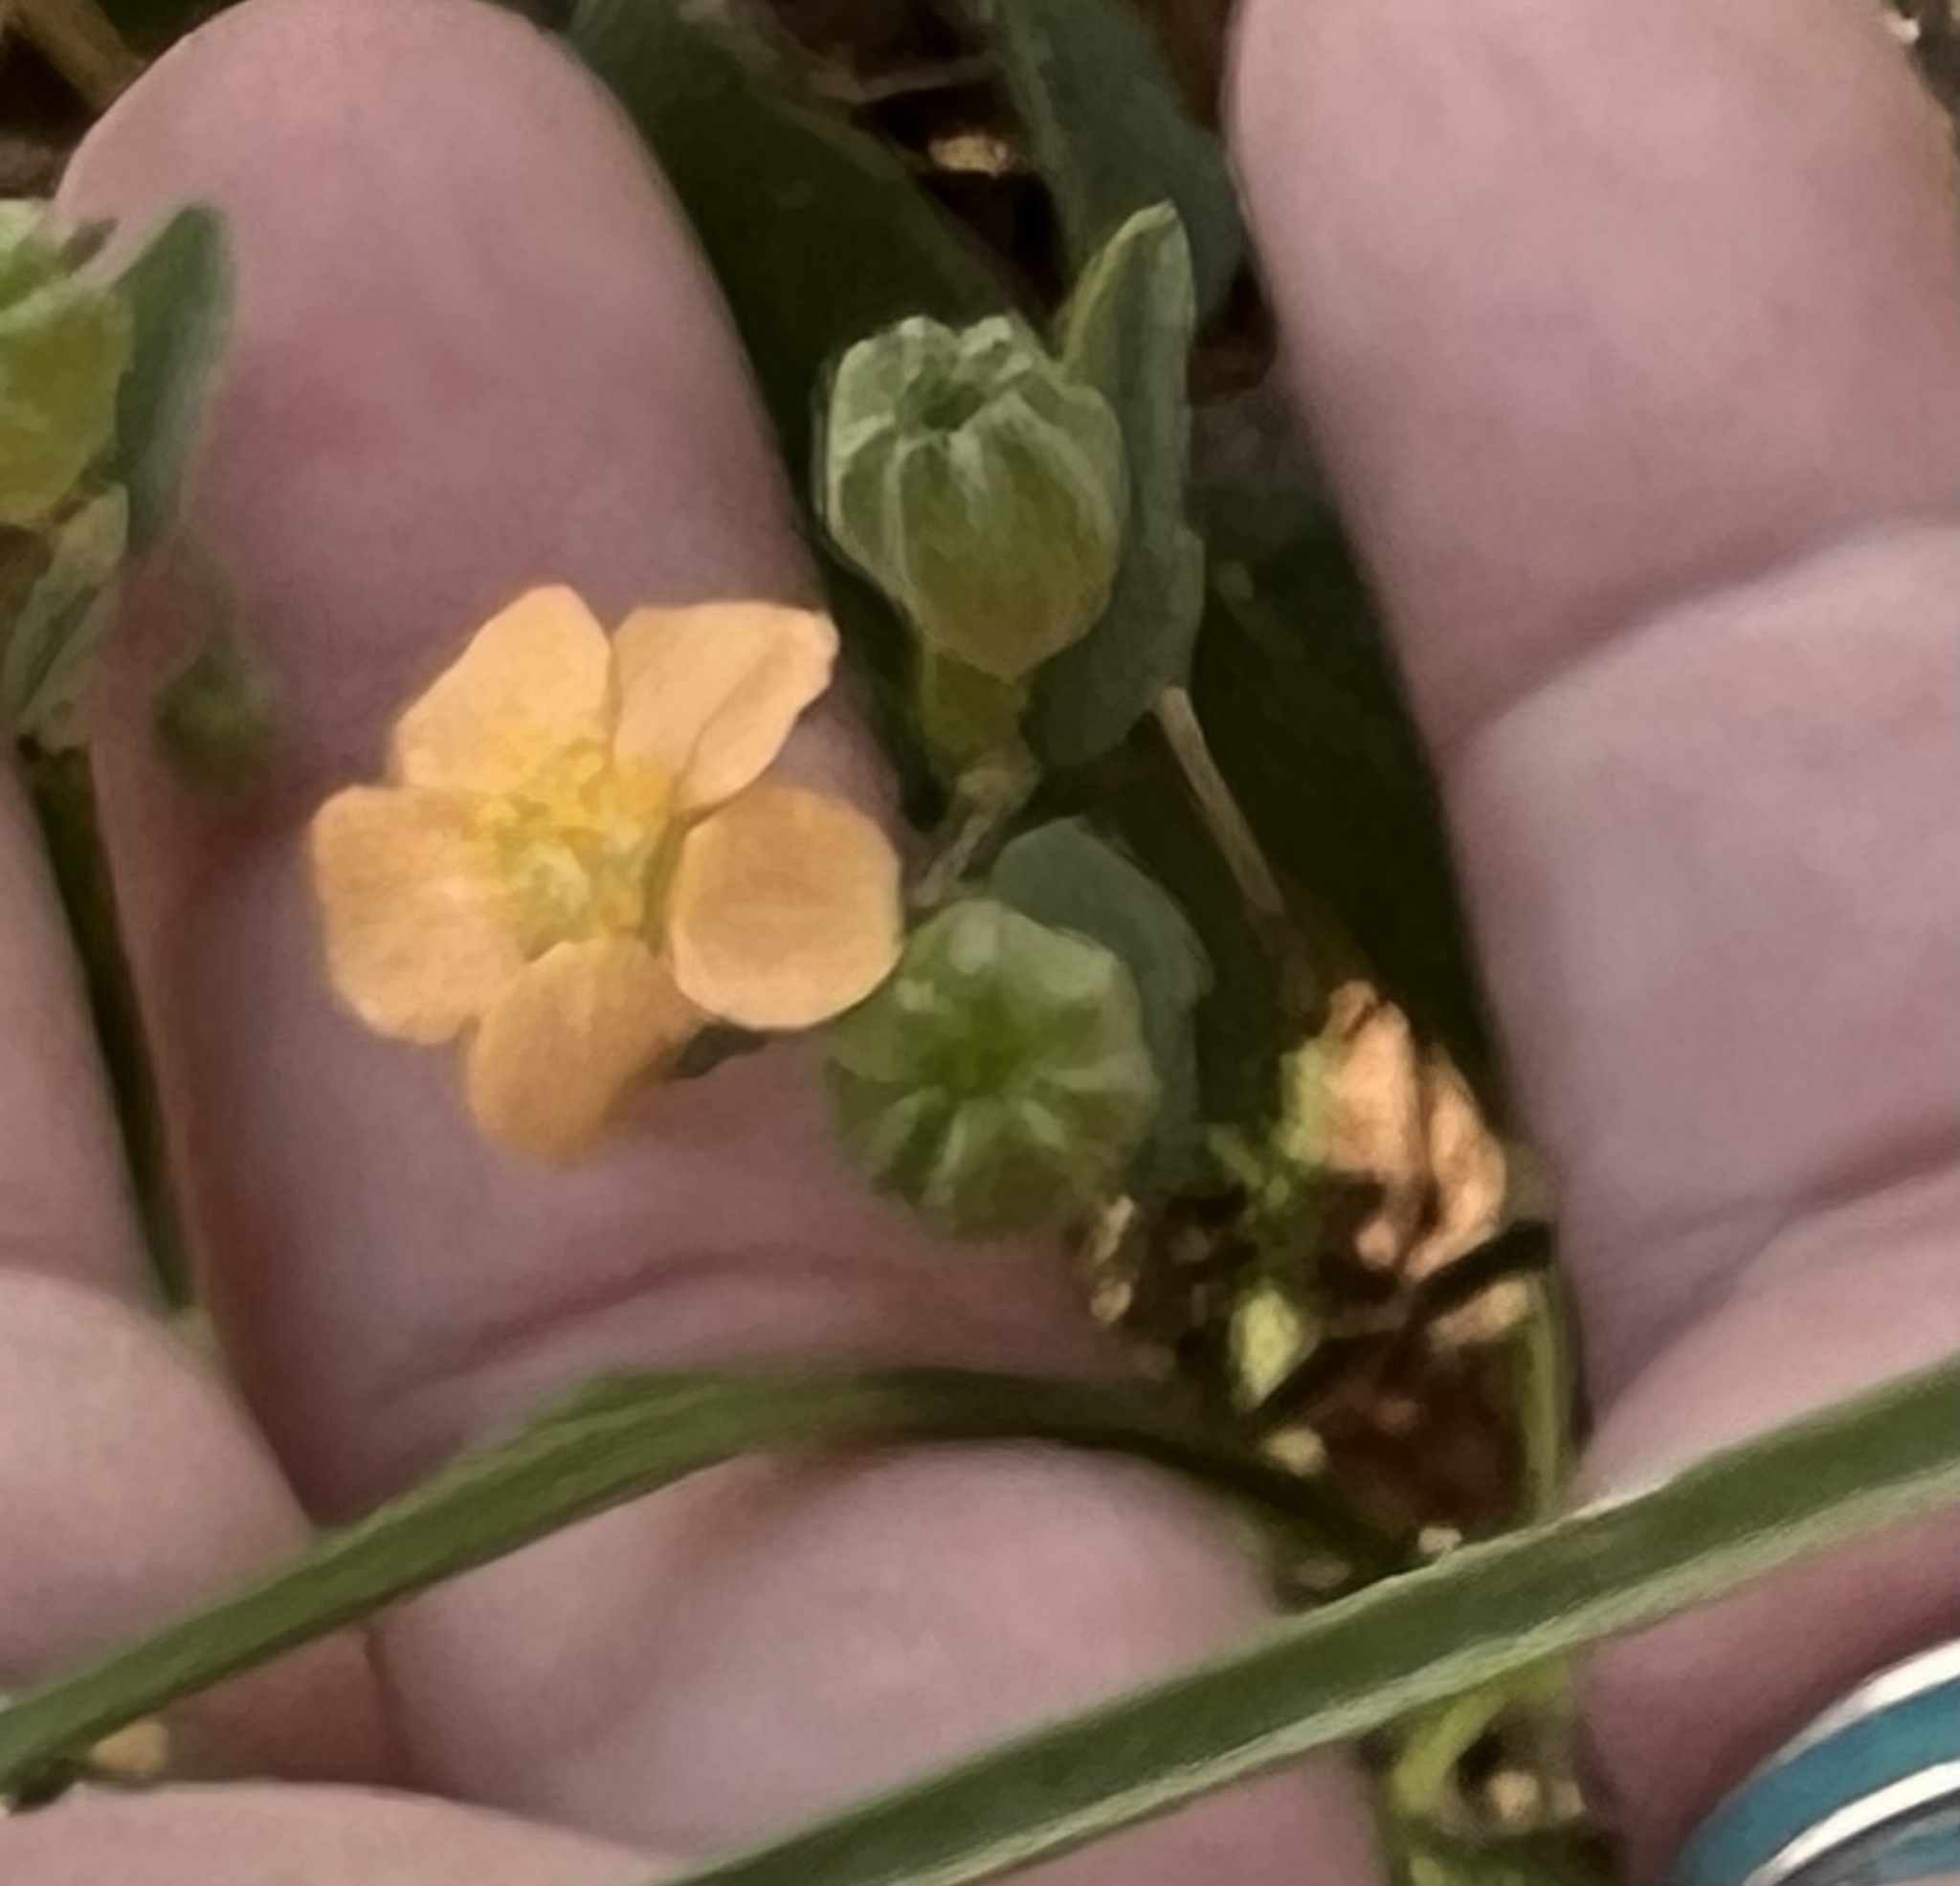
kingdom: Plantae
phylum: Tracheophyta
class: Magnoliopsida
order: Malvales
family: Malvaceae
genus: Abutilon
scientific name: Abutilon fruticosum
